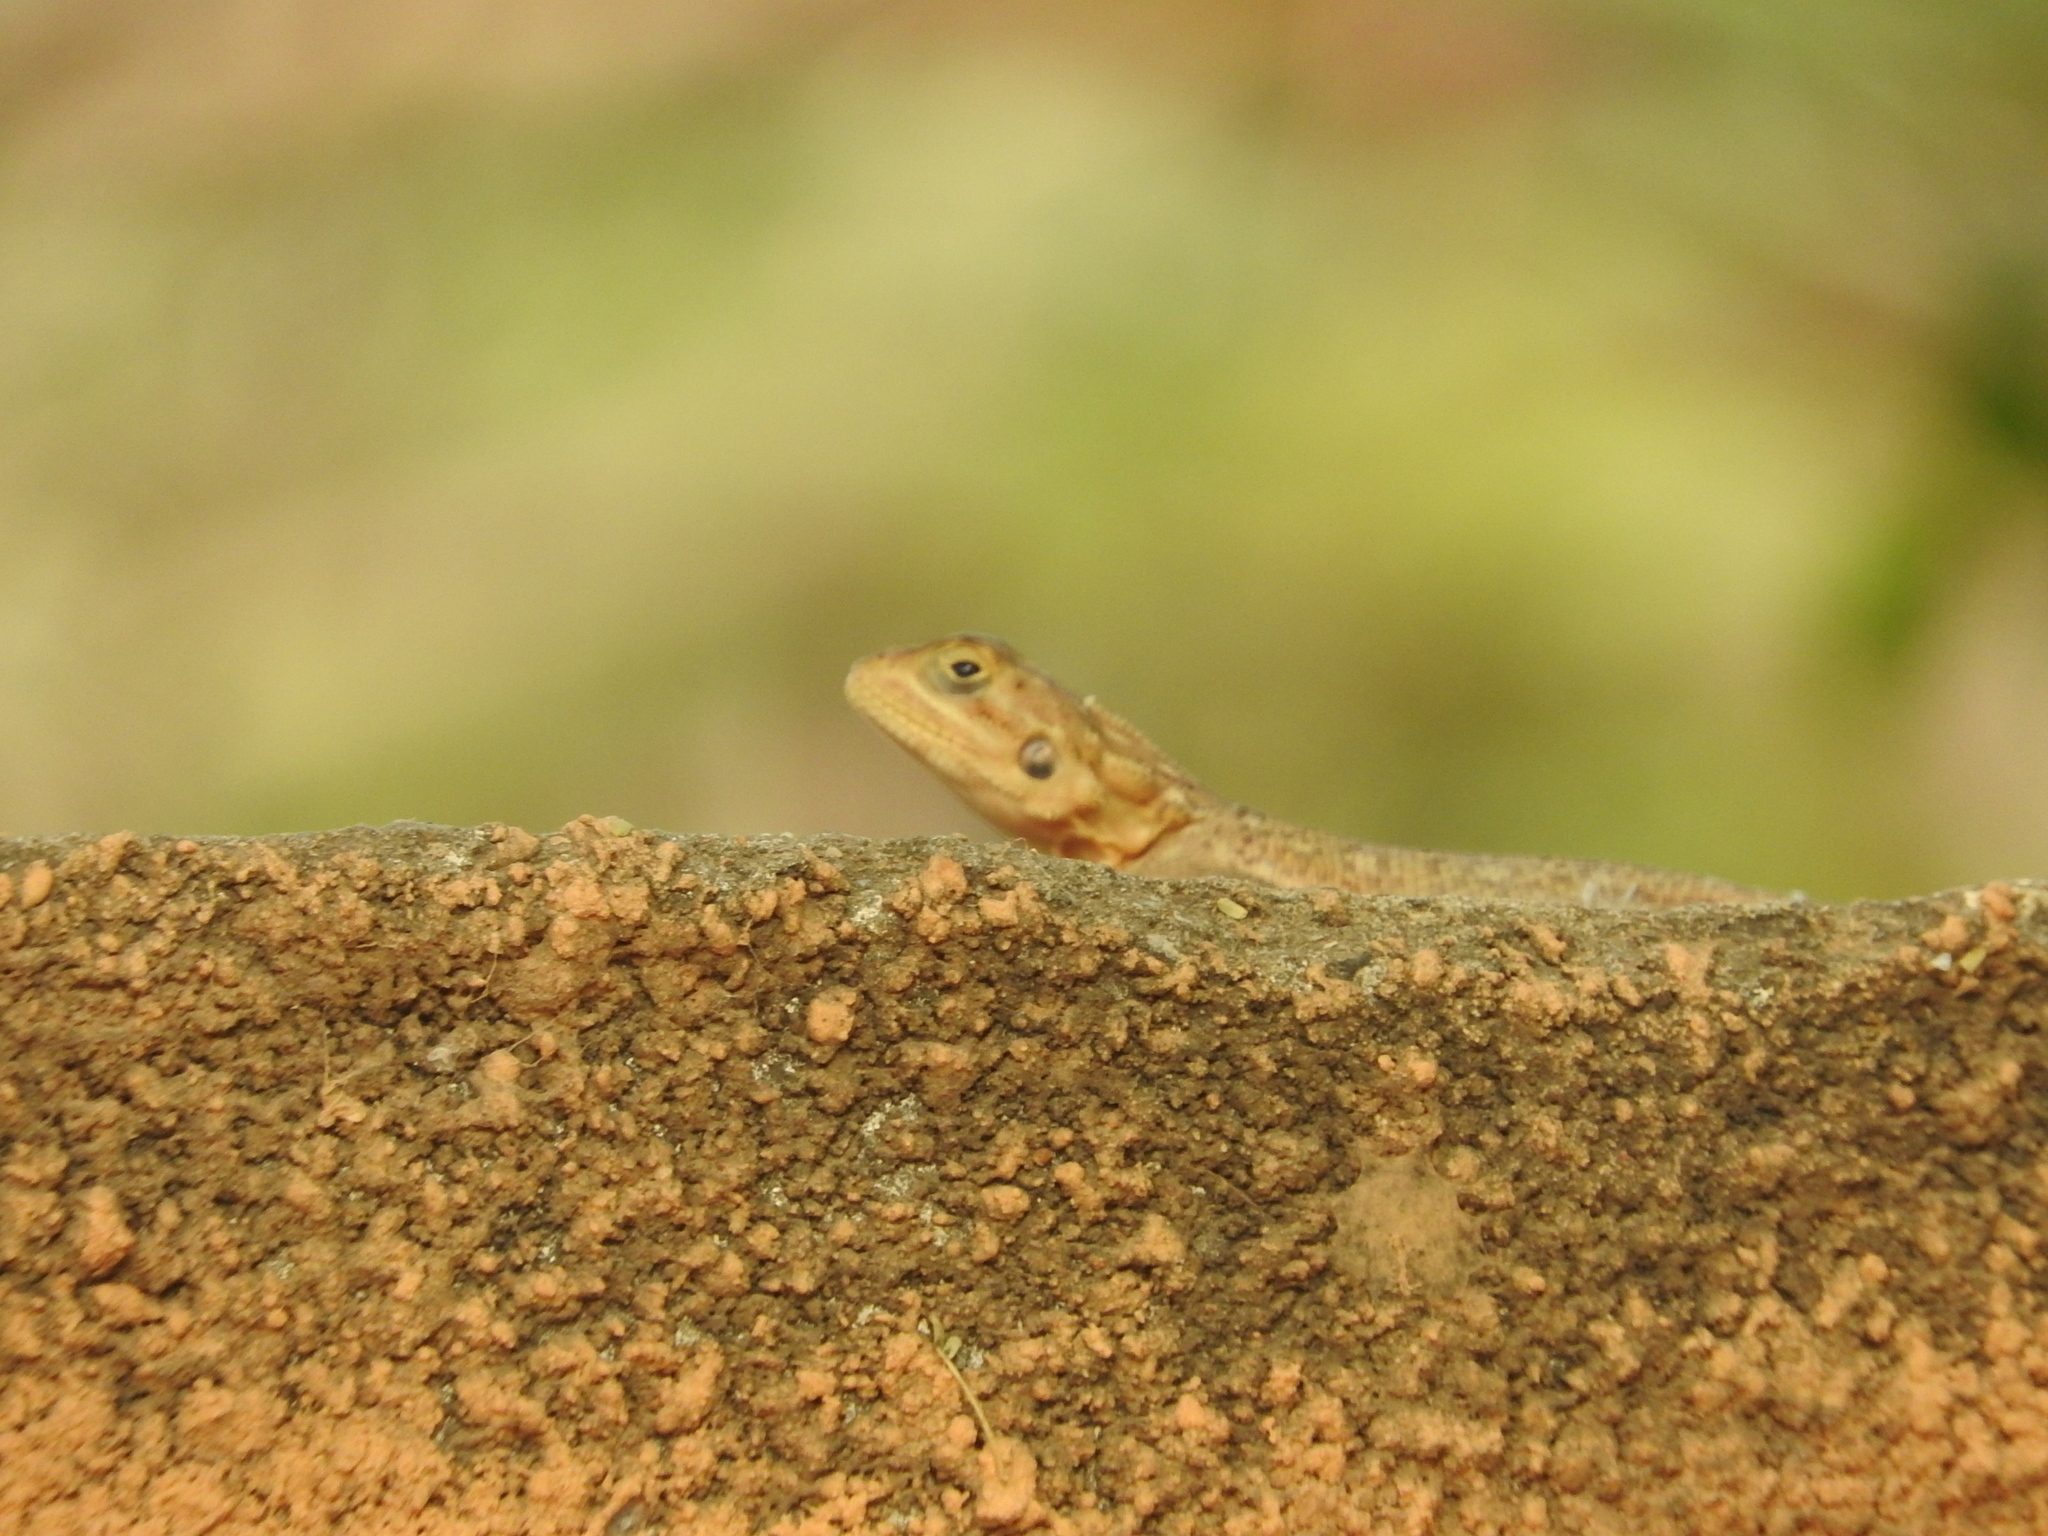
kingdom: Animalia
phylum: Chordata
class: Squamata
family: Agamidae
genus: Agama
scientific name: Agama agama
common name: Common agama
